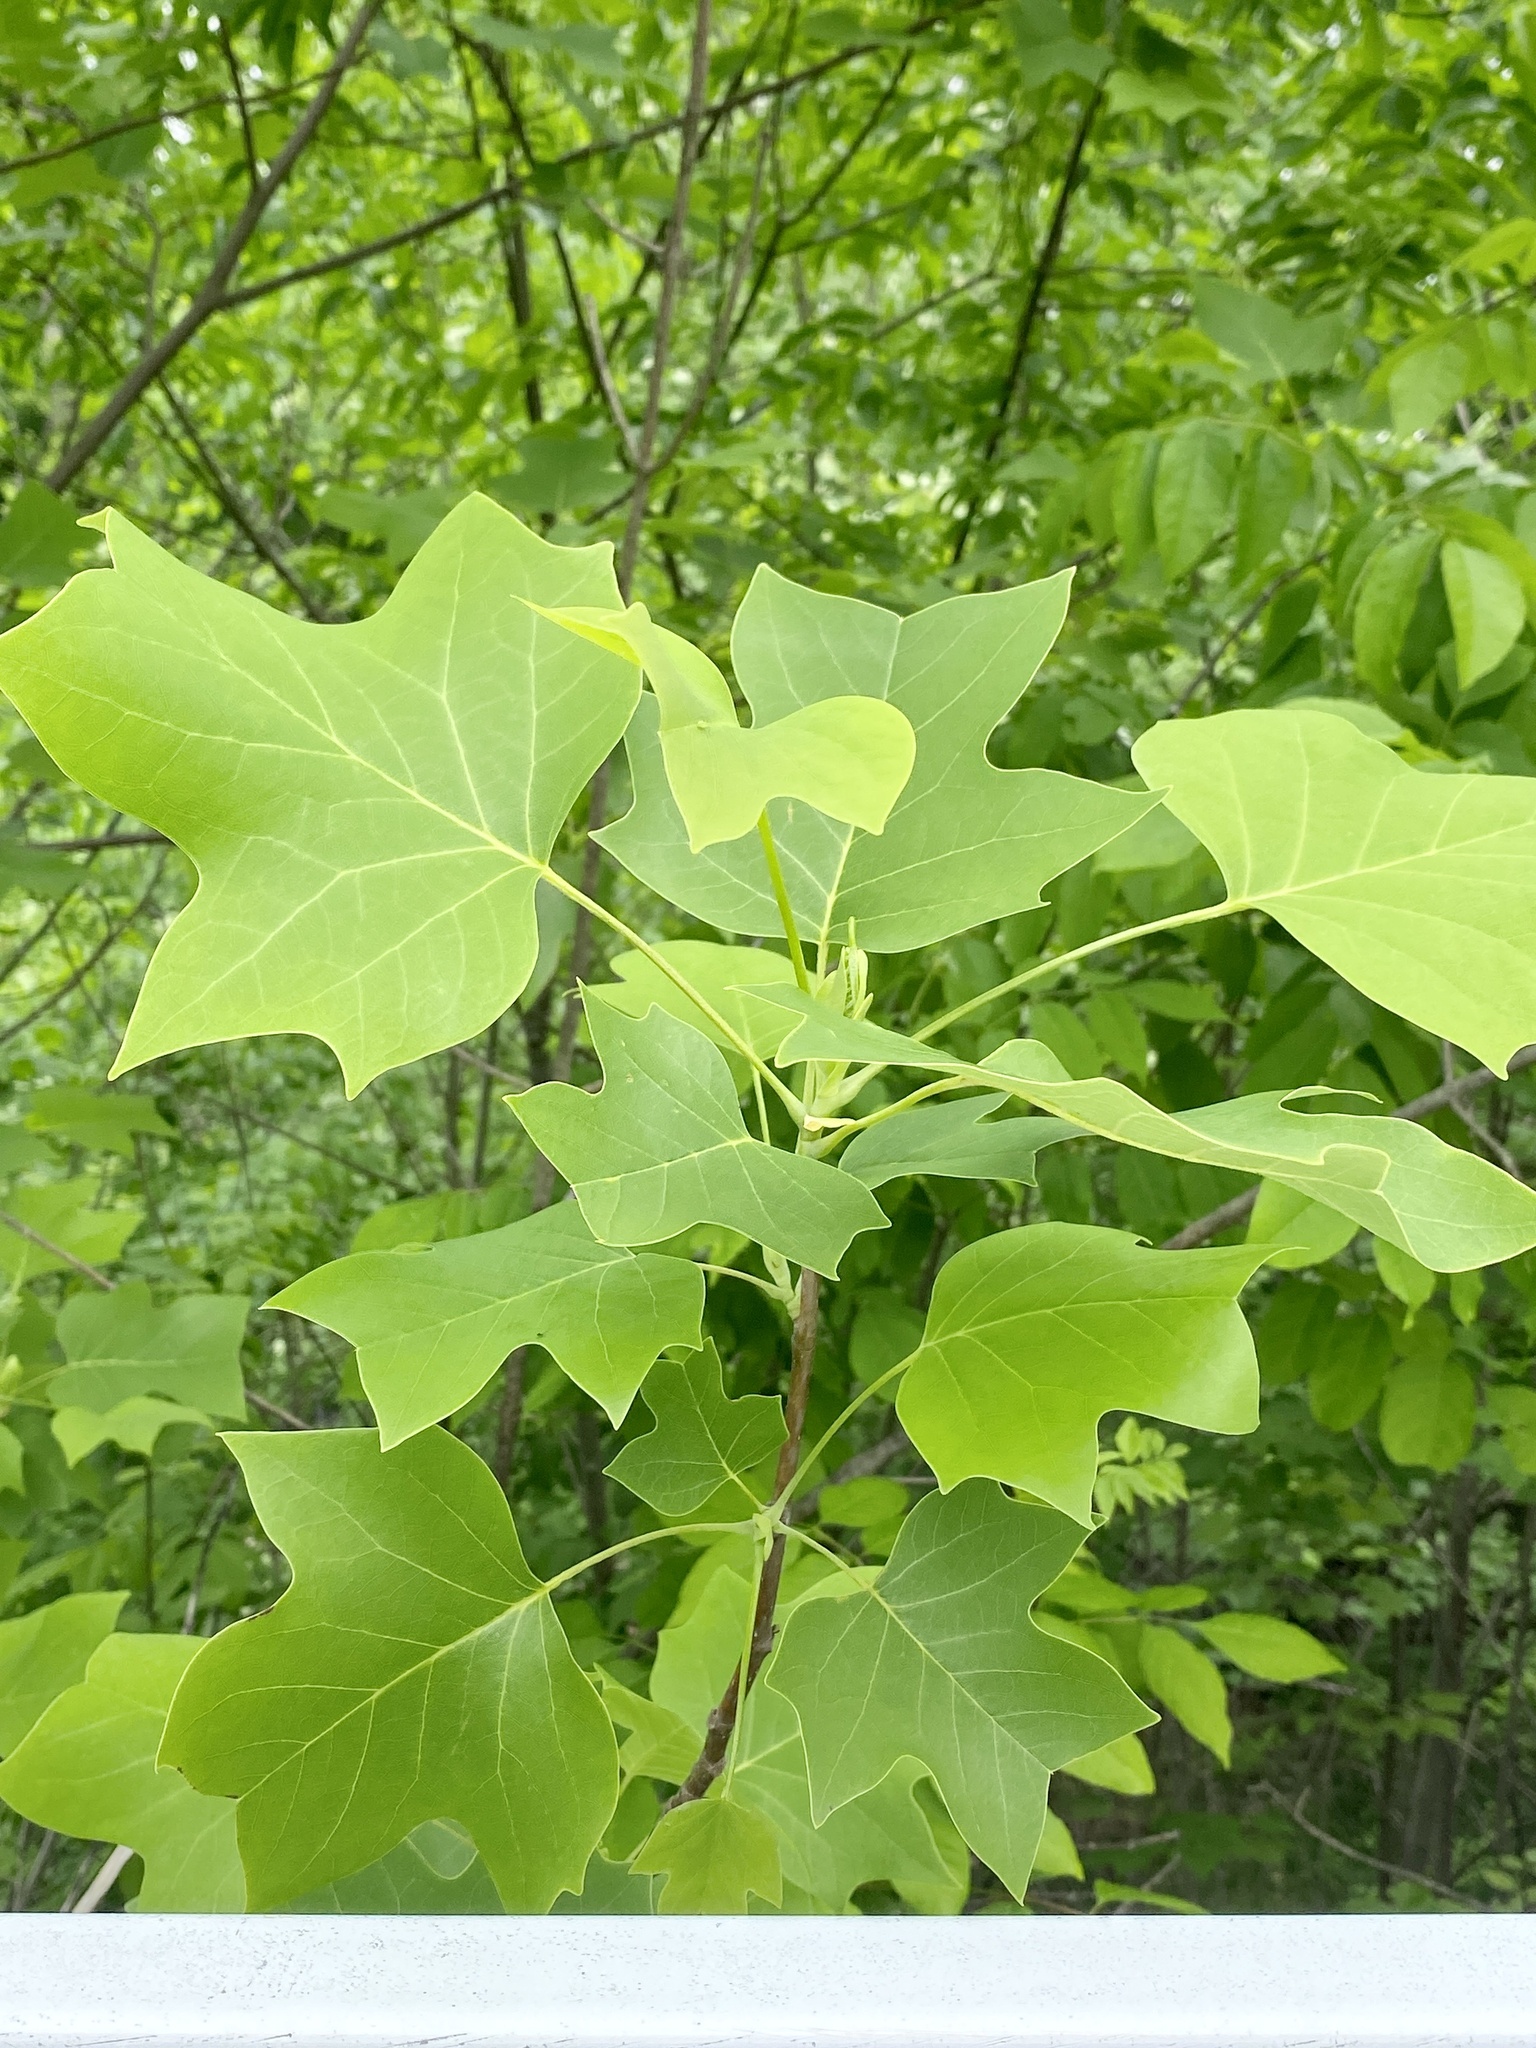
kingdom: Plantae
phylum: Tracheophyta
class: Magnoliopsida
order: Magnoliales
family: Magnoliaceae
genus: Liriodendron
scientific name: Liriodendron tulipifera
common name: Tulip tree
